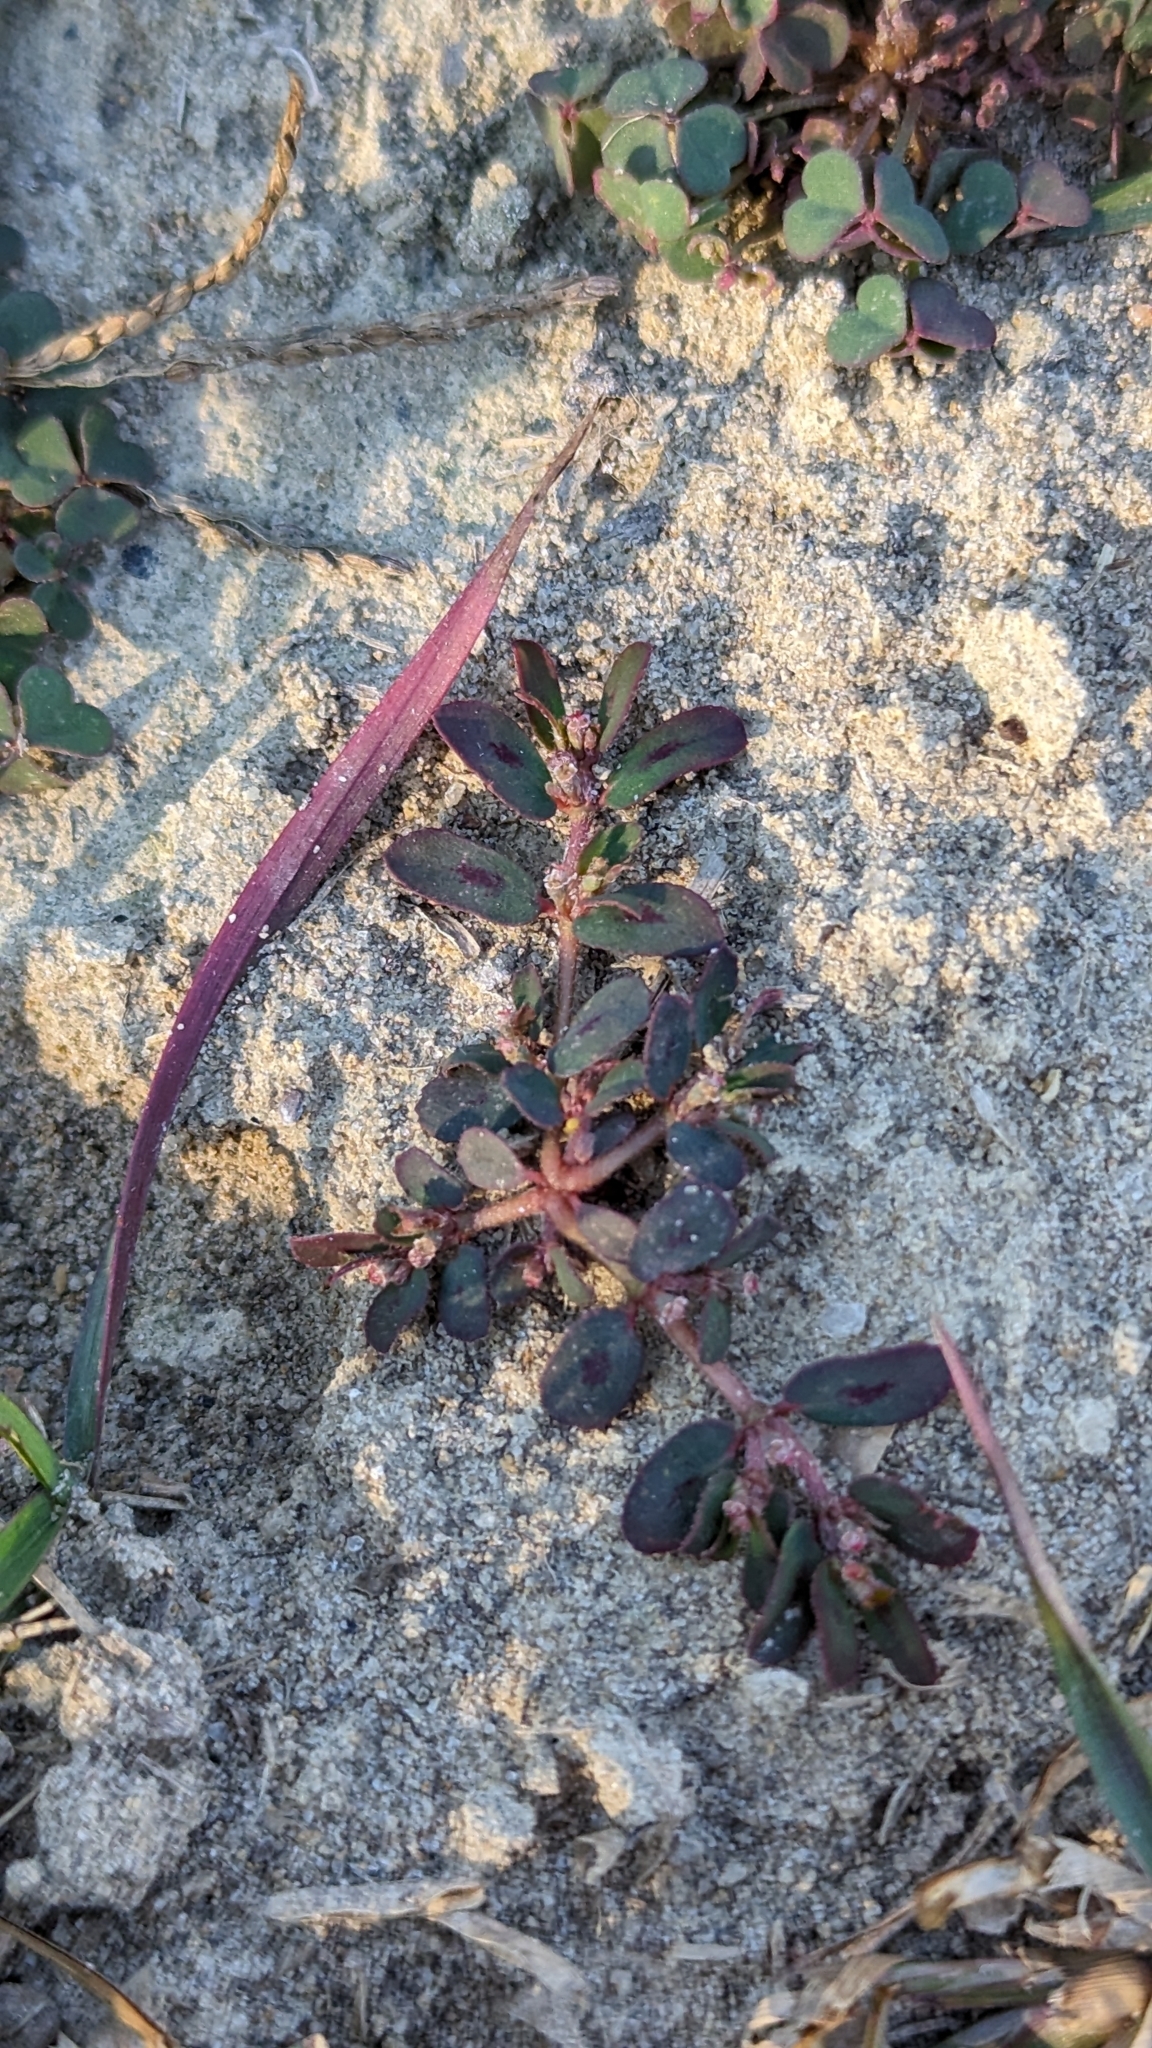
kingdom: Plantae
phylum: Tracheophyta
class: Magnoliopsida
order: Malpighiales
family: Euphorbiaceae
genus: Euphorbia
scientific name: Euphorbia maculata
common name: Spotted spurge
